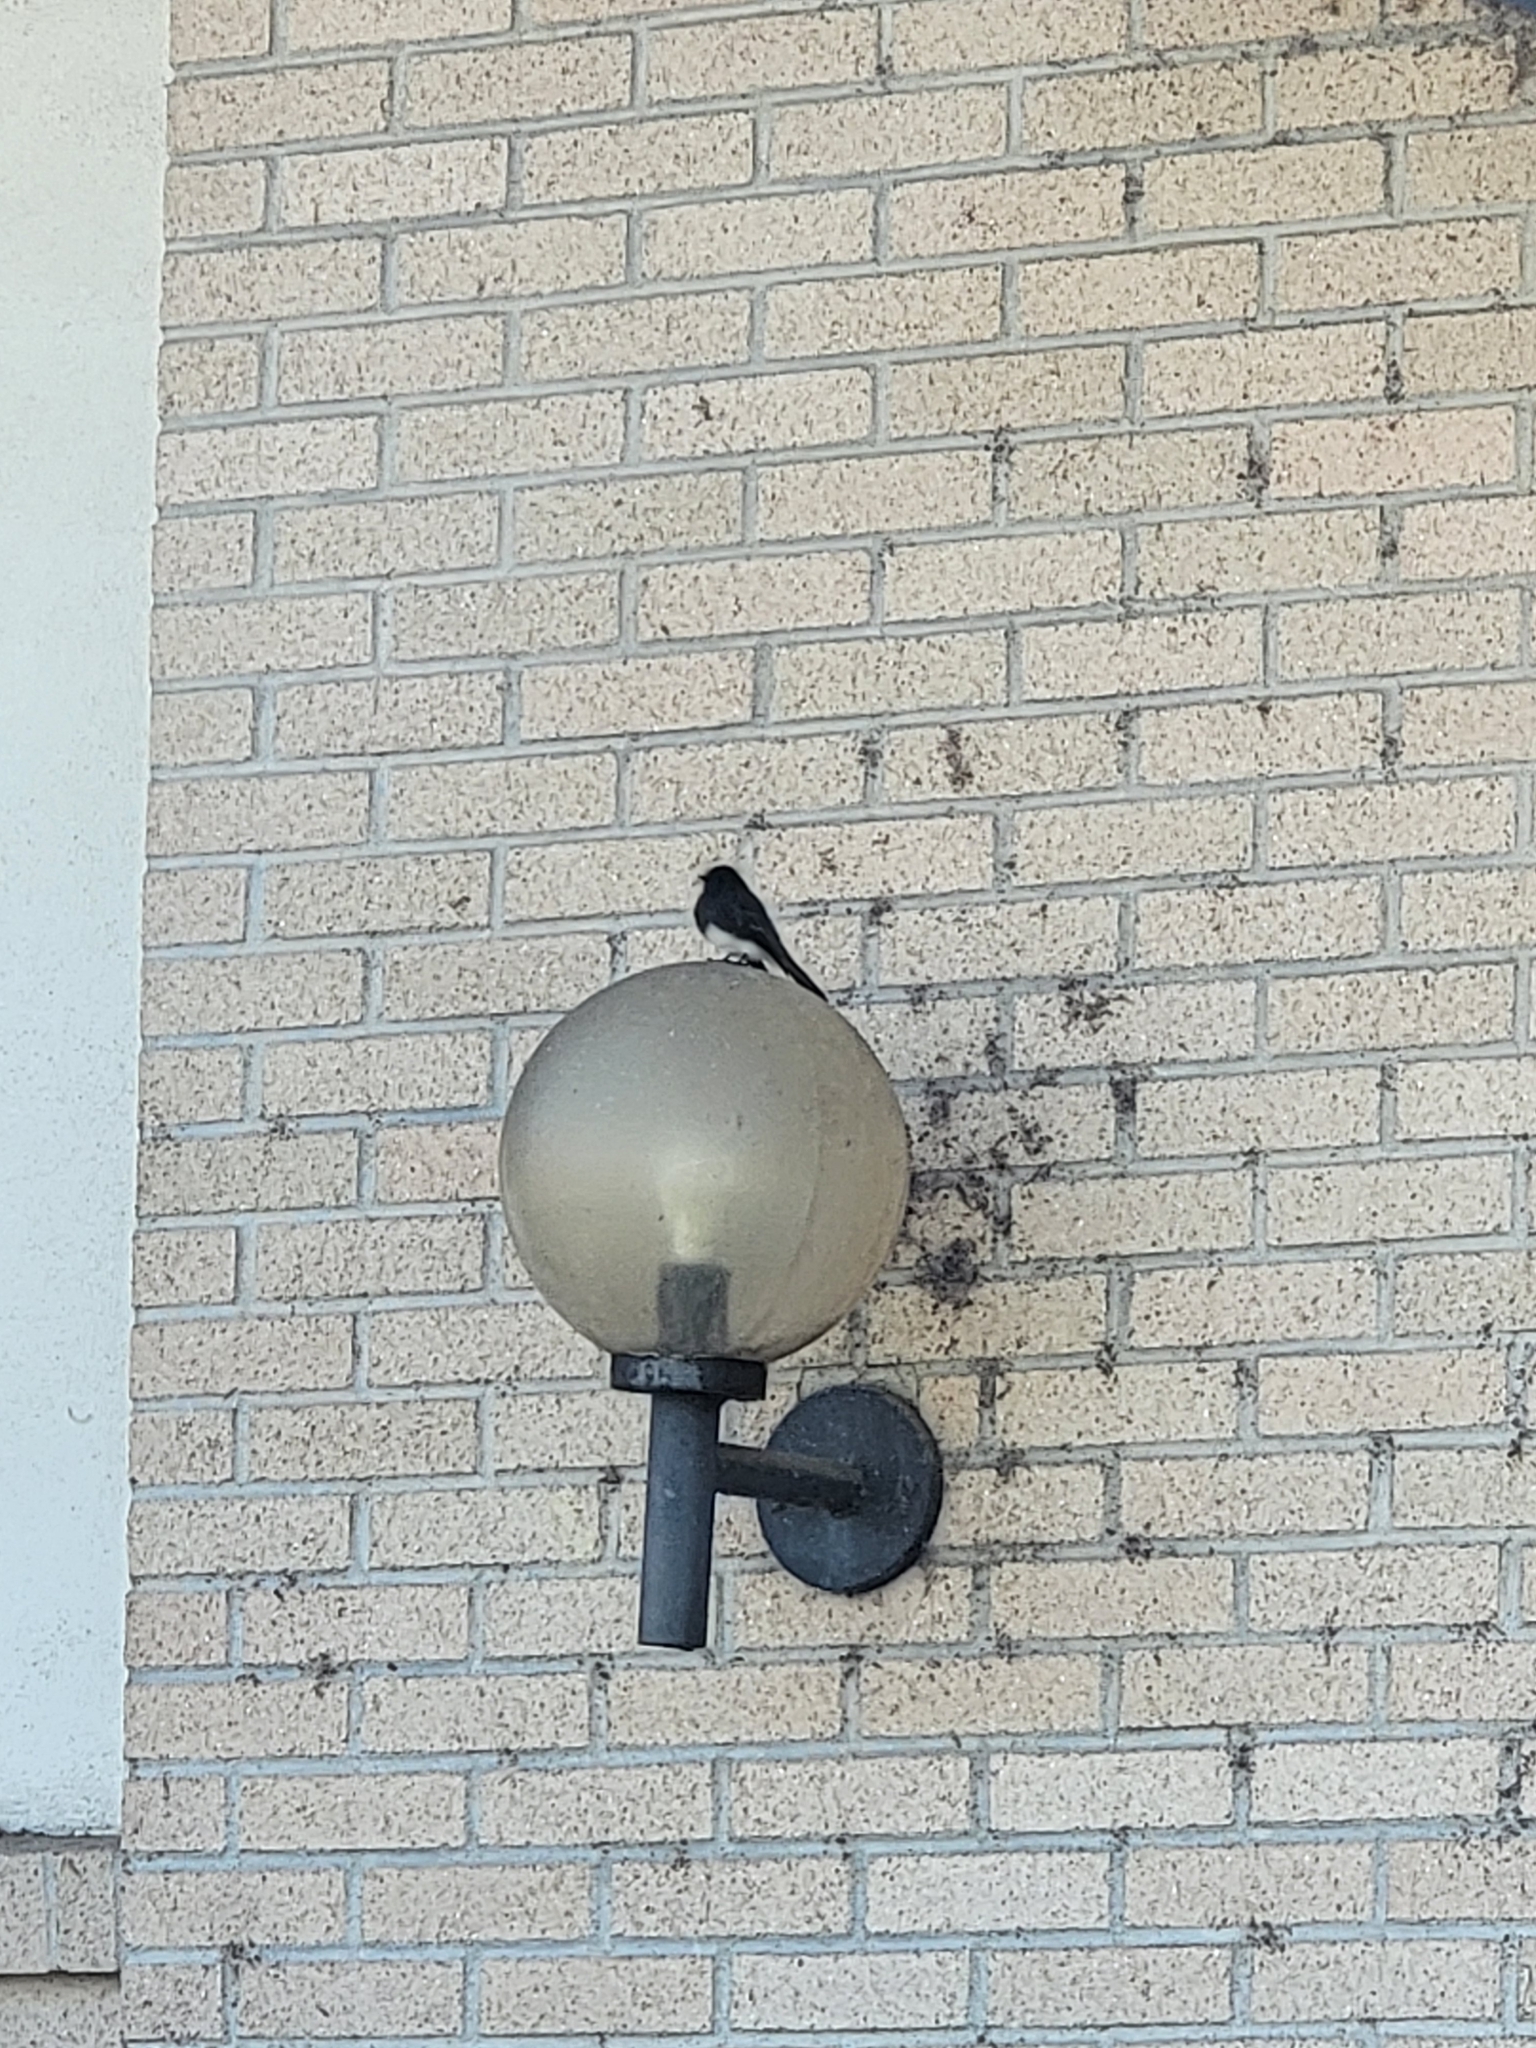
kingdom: Animalia
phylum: Chordata
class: Aves
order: Passeriformes
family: Tyrannidae
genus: Sayornis
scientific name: Sayornis nigricans
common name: Black phoebe
